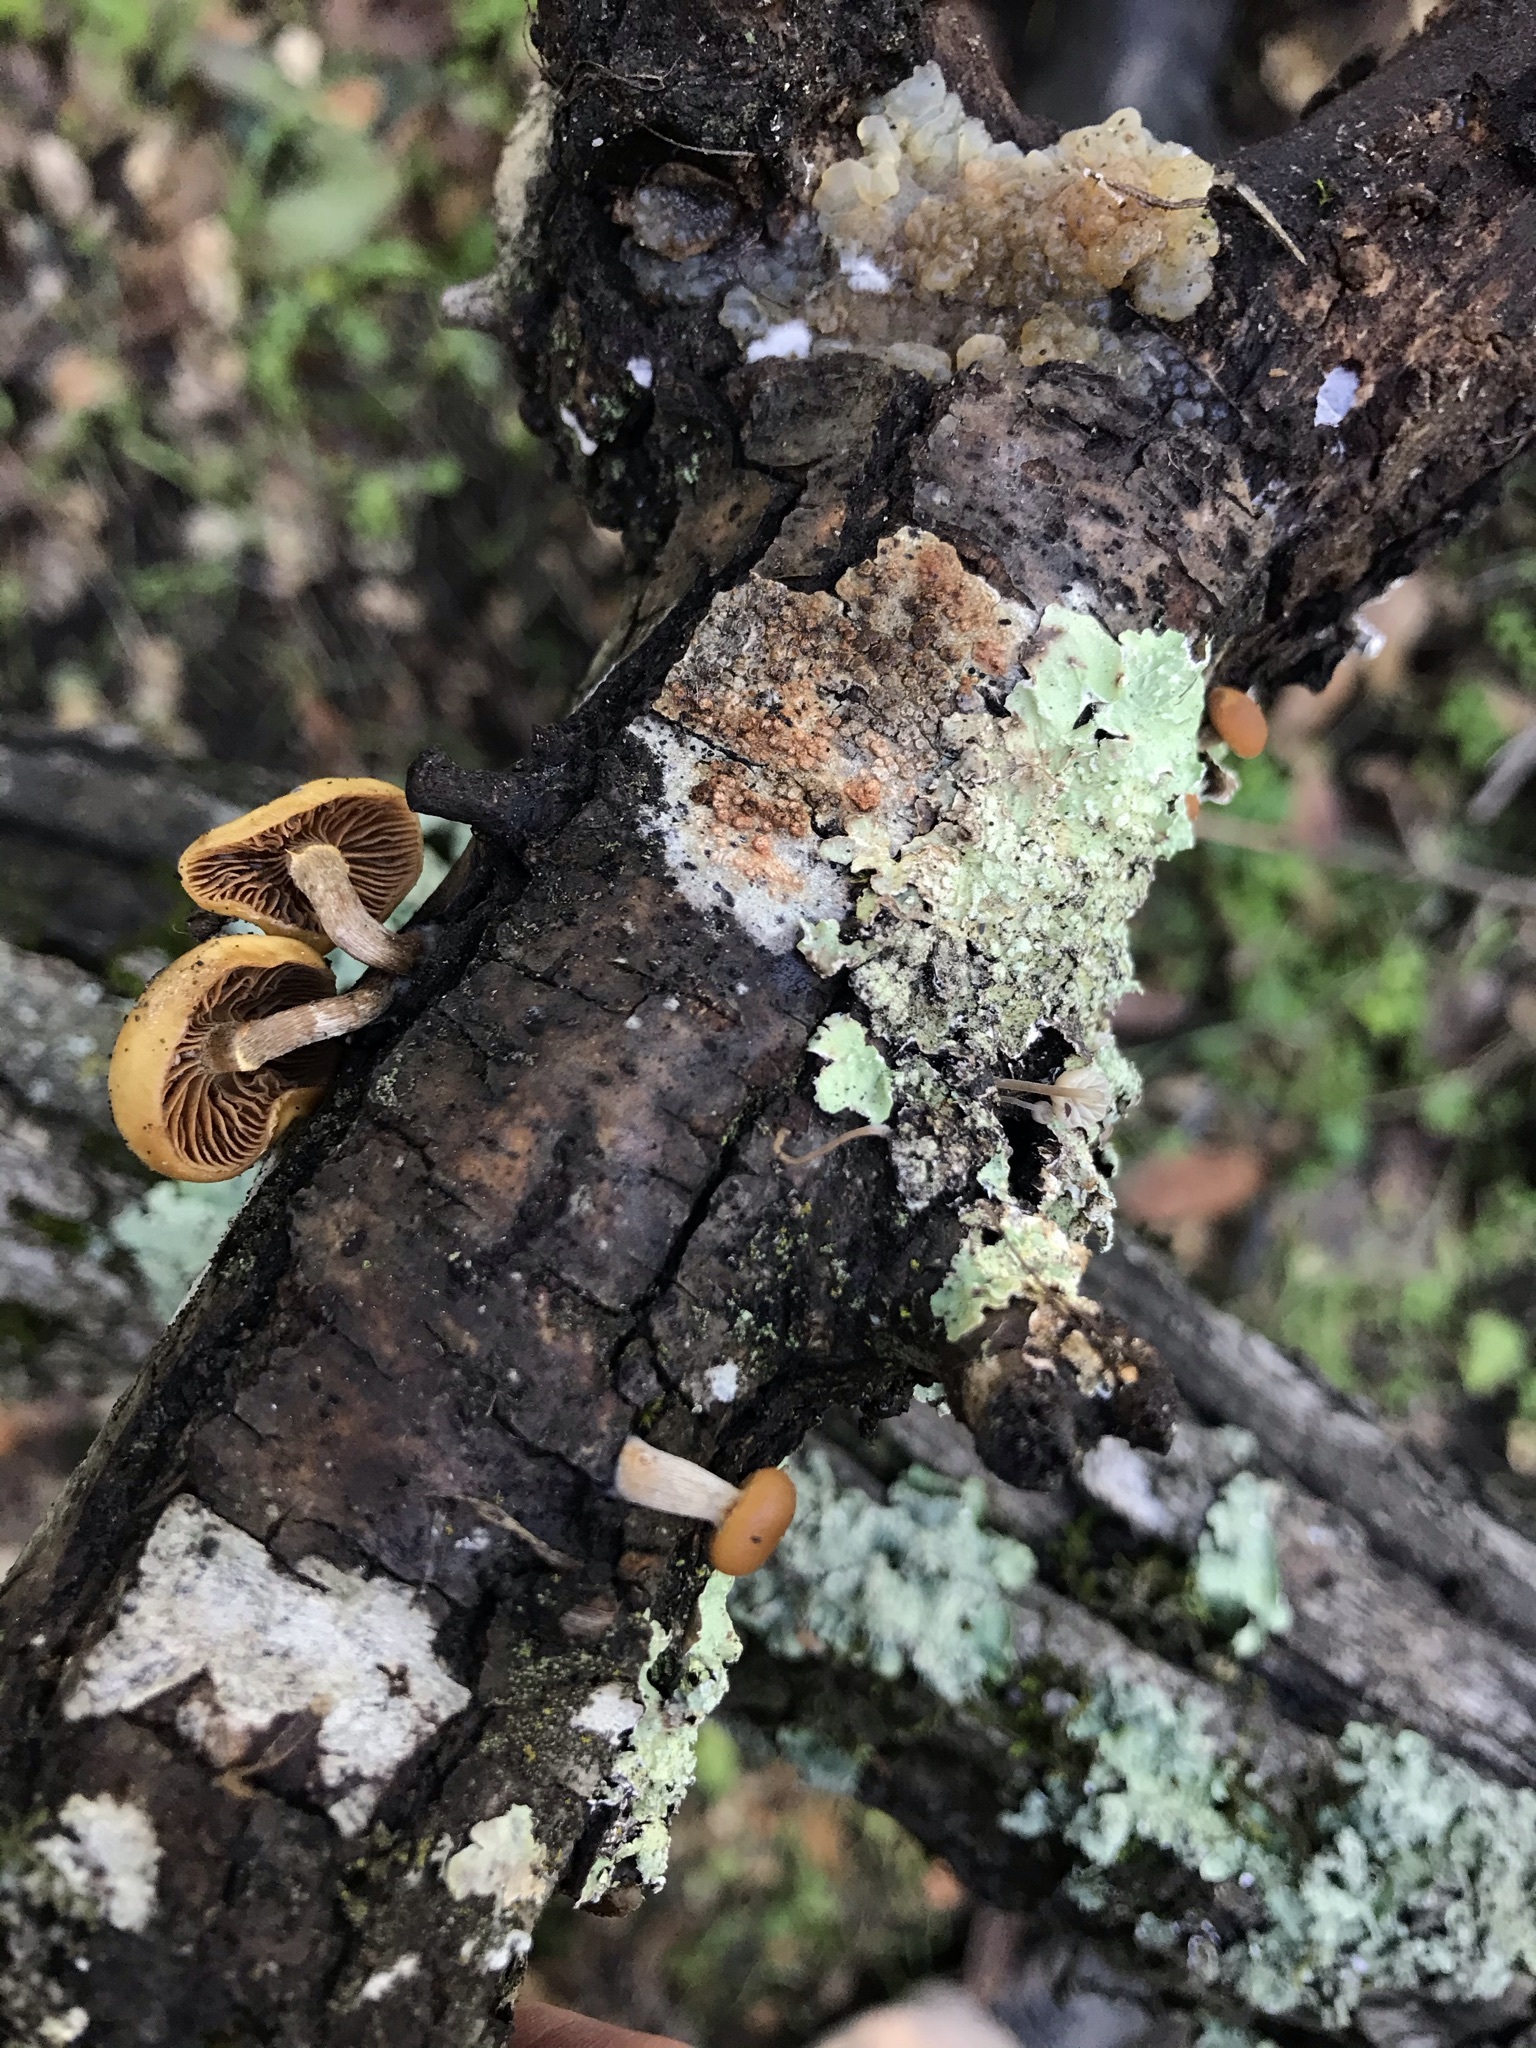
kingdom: Fungi
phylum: Basidiomycota
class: Agaricomycetes
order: Agaricales
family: Hymenogastraceae
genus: Galerina
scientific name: Galerina marginata
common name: Funeral bell
